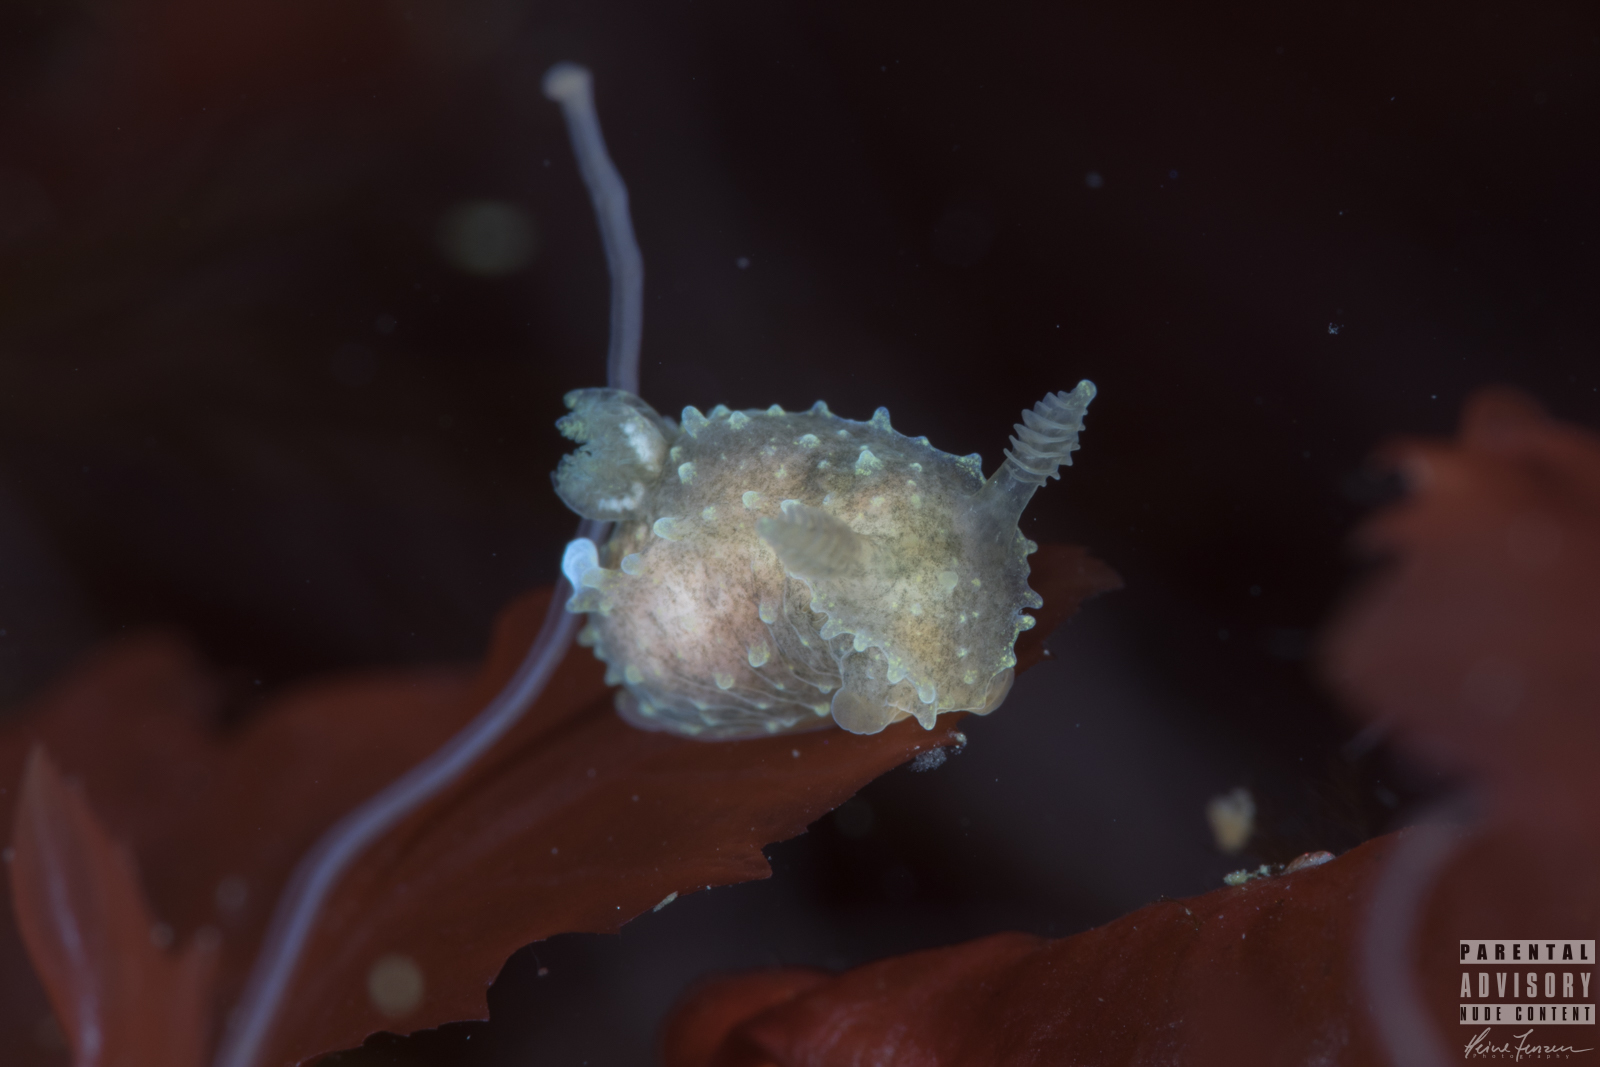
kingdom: Animalia
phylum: Mollusca
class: Gastropoda
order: Nudibranchia
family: Polyceridae
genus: Palio
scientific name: Palio dubia
